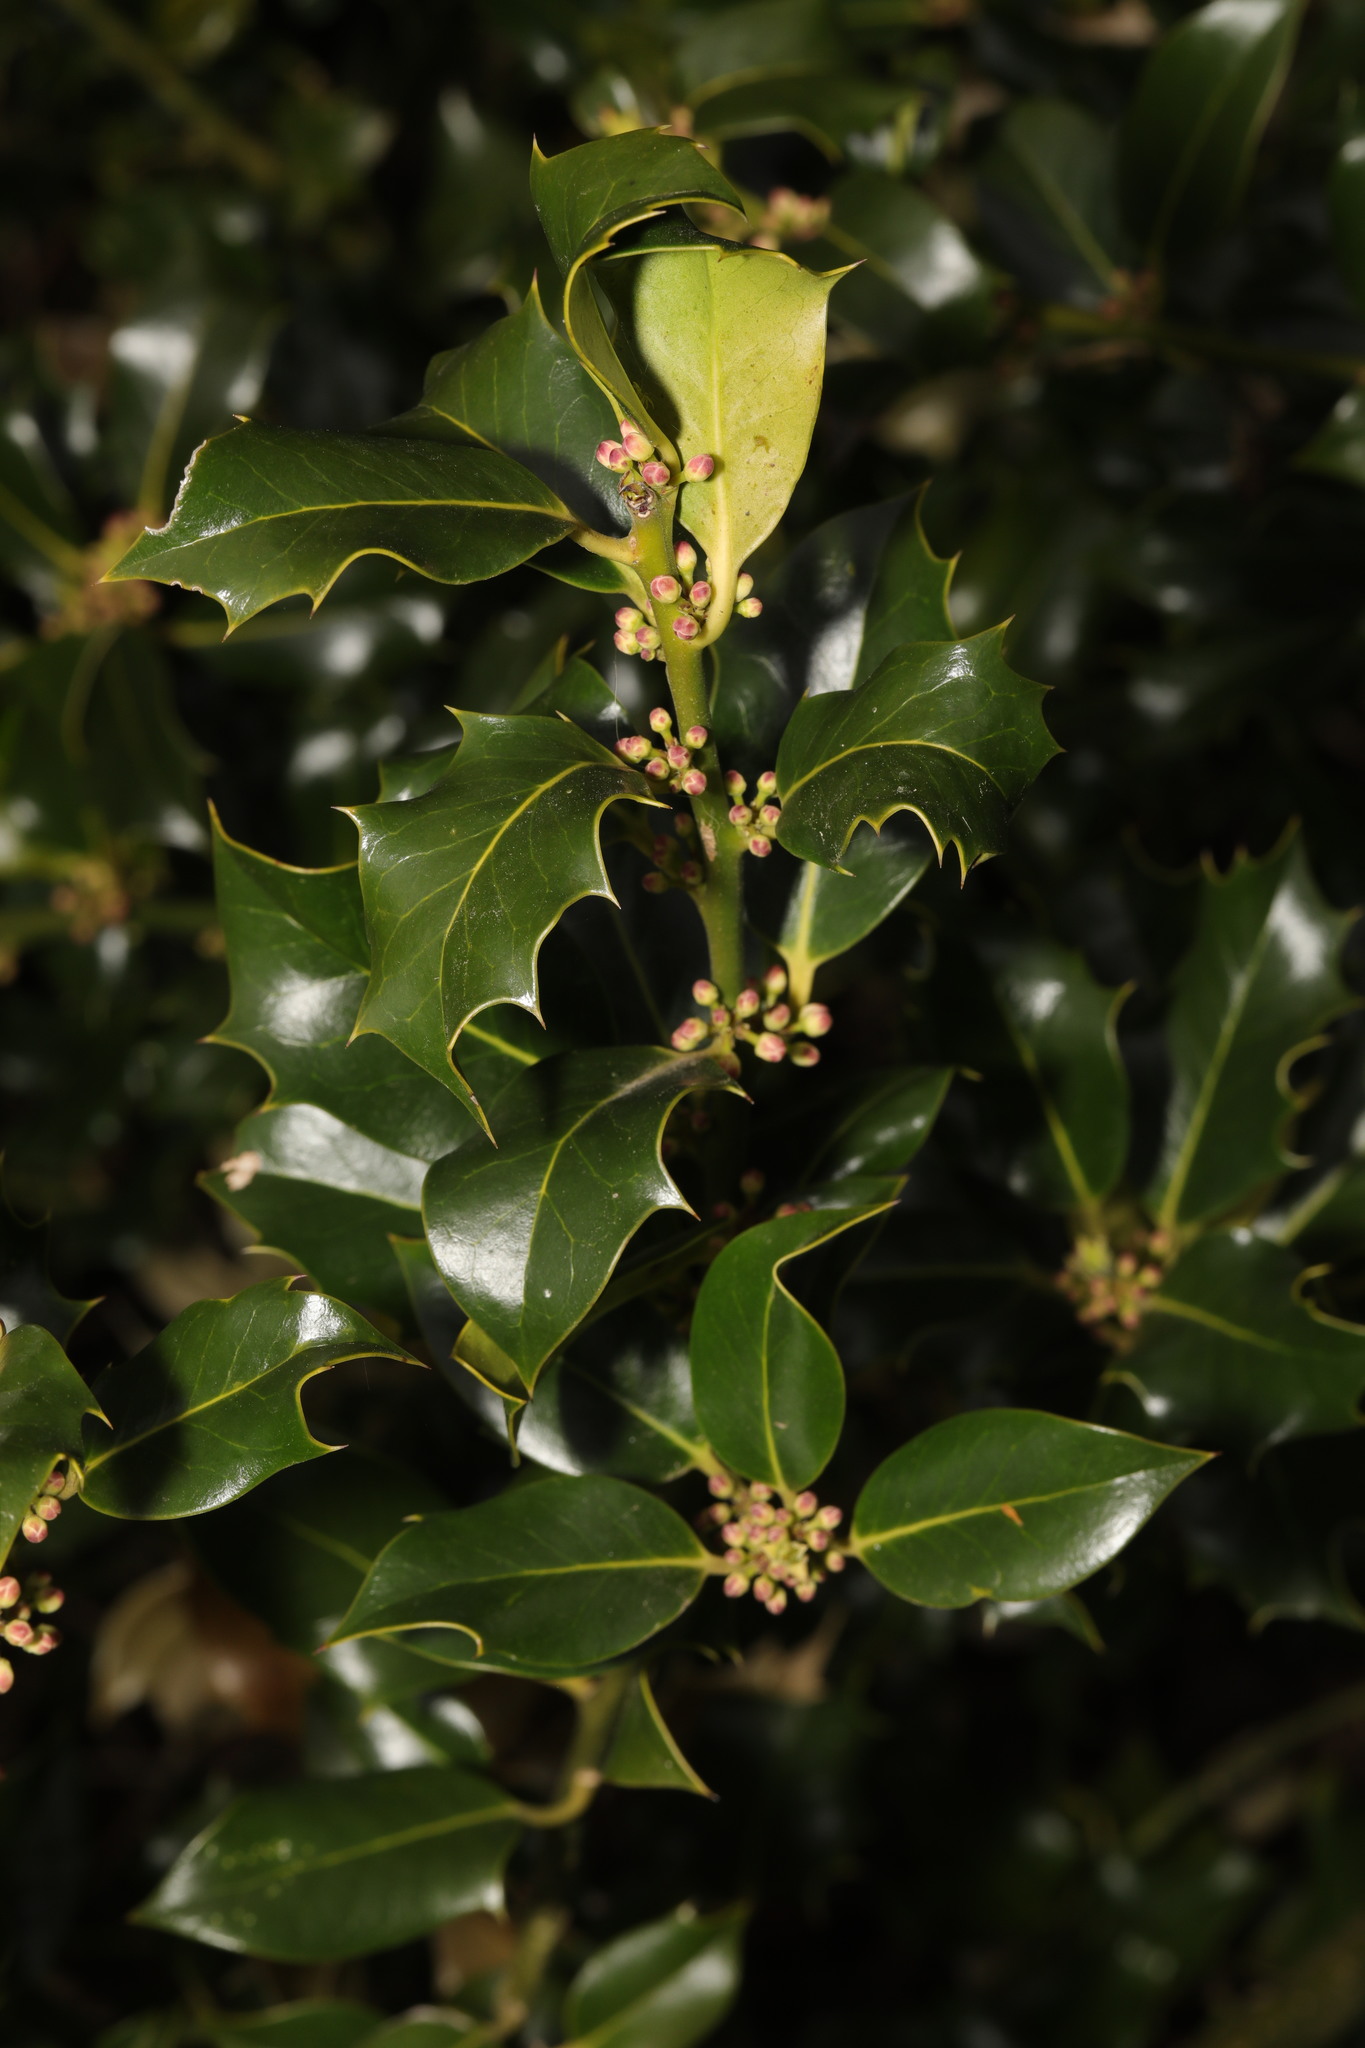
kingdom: Plantae
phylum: Tracheophyta
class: Magnoliopsida
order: Aquifoliales
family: Aquifoliaceae
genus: Ilex
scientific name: Ilex aquifolium
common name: English holly
